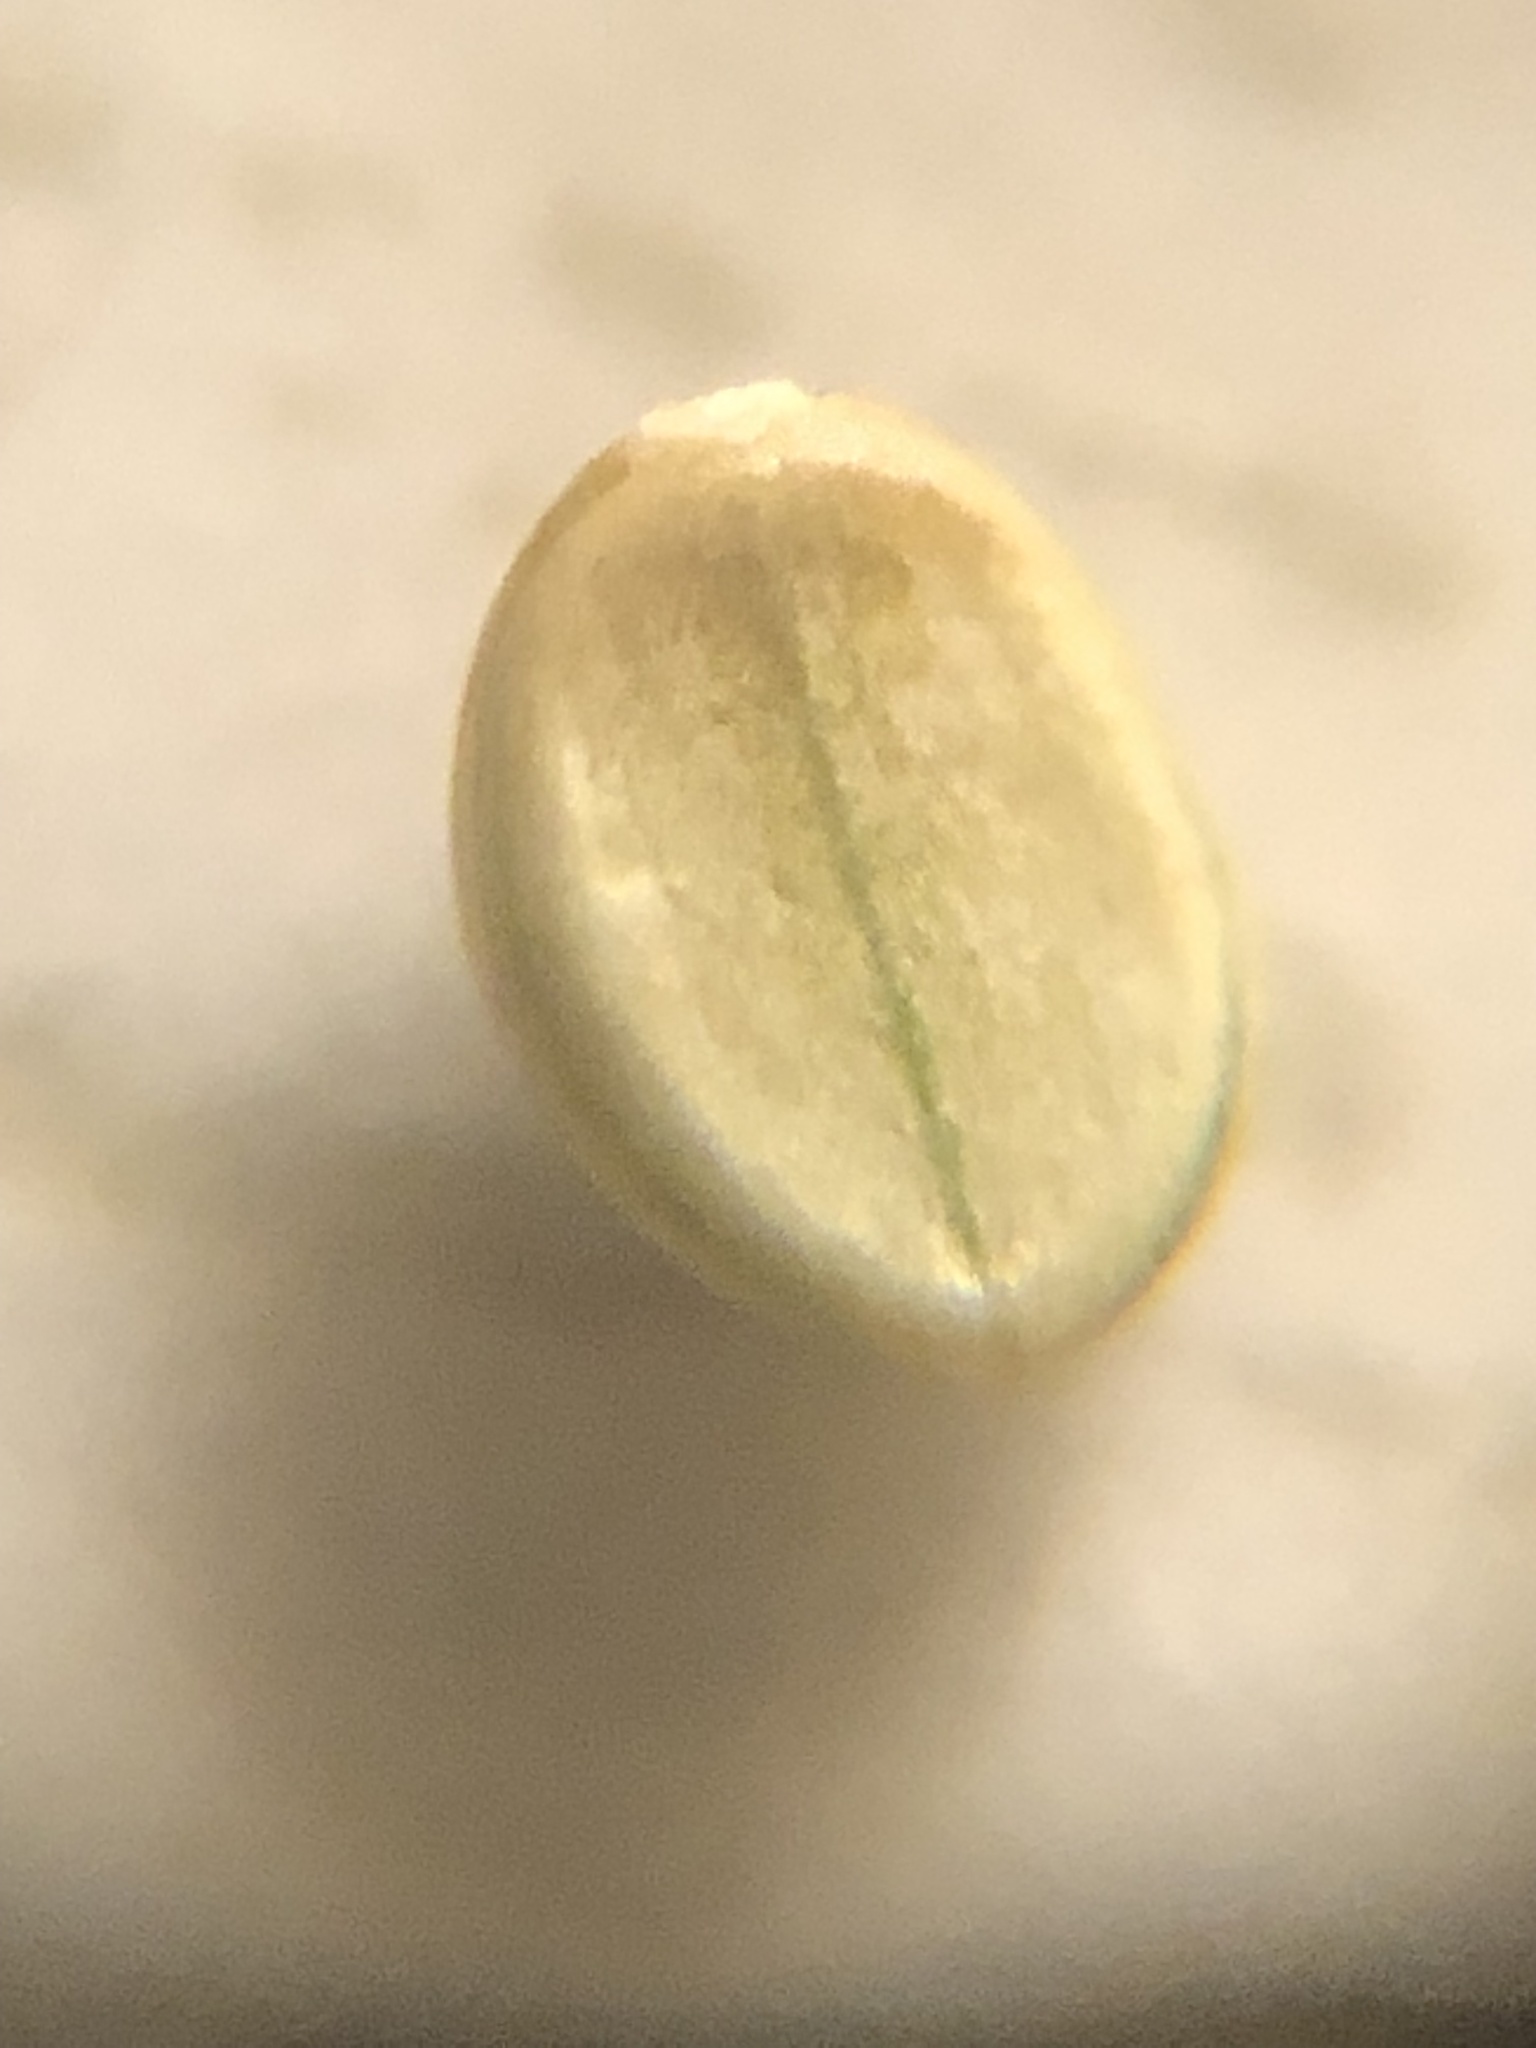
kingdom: Plantae
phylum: Tracheophyta
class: Liliopsida
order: Poales
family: Poaceae
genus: Paspalum
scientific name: Paspalum setaceum
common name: Slender paspalum
